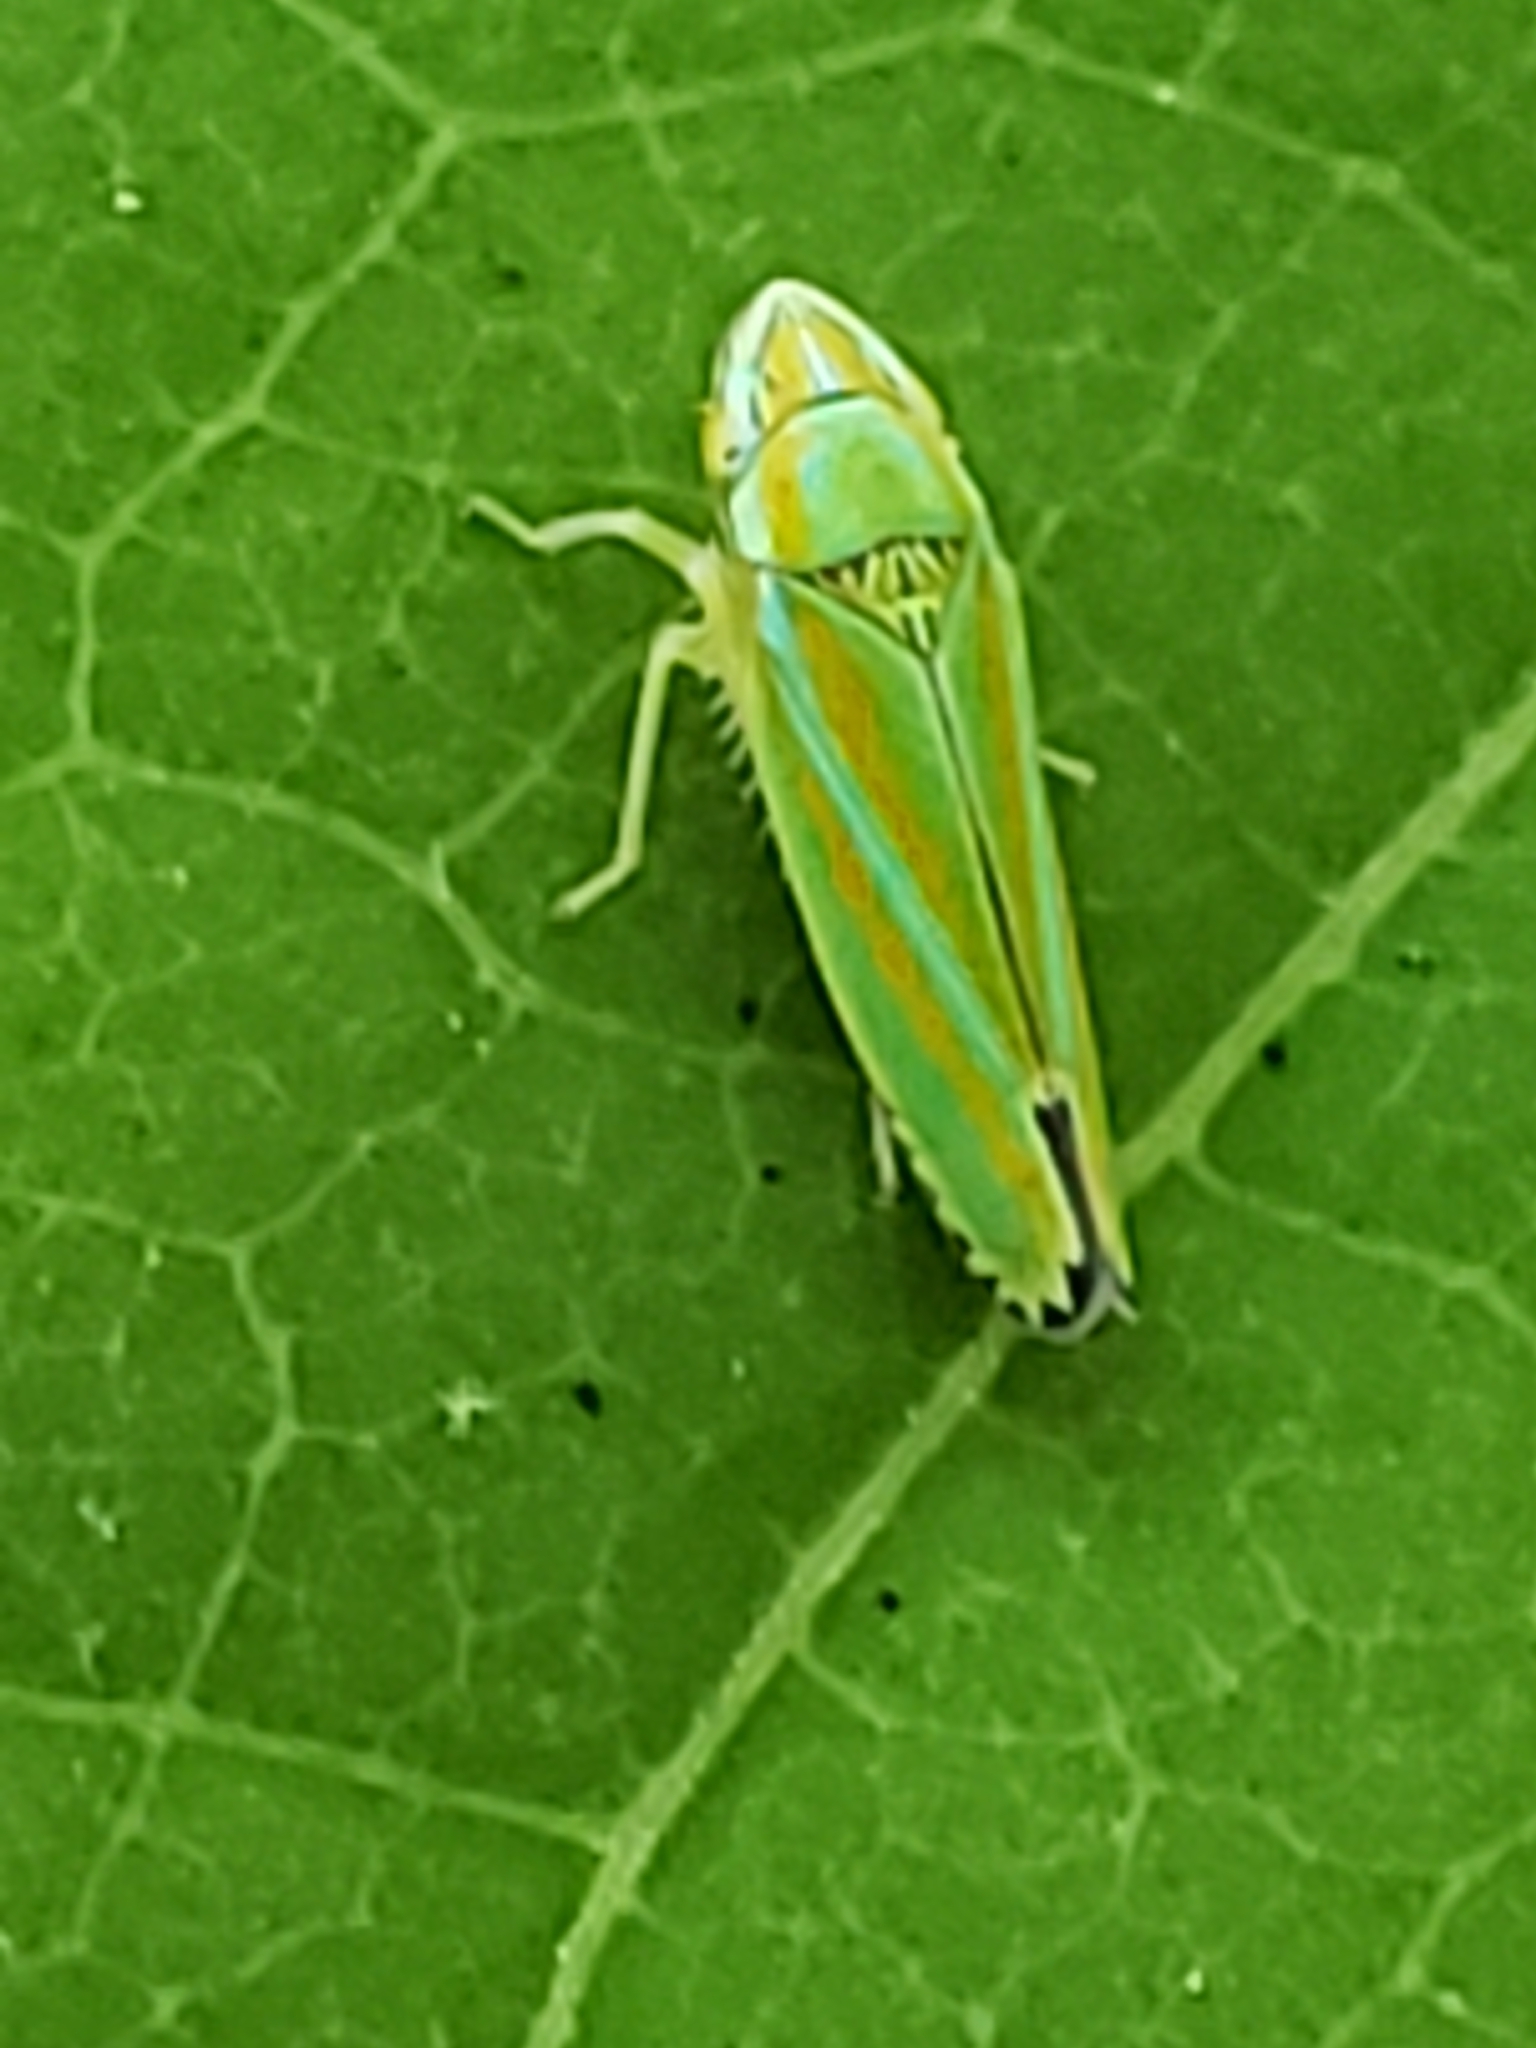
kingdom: Animalia
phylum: Arthropoda
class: Insecta
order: Hemiptera
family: Cicadellidae
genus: Graphocephala
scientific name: Graphocephala versuta
